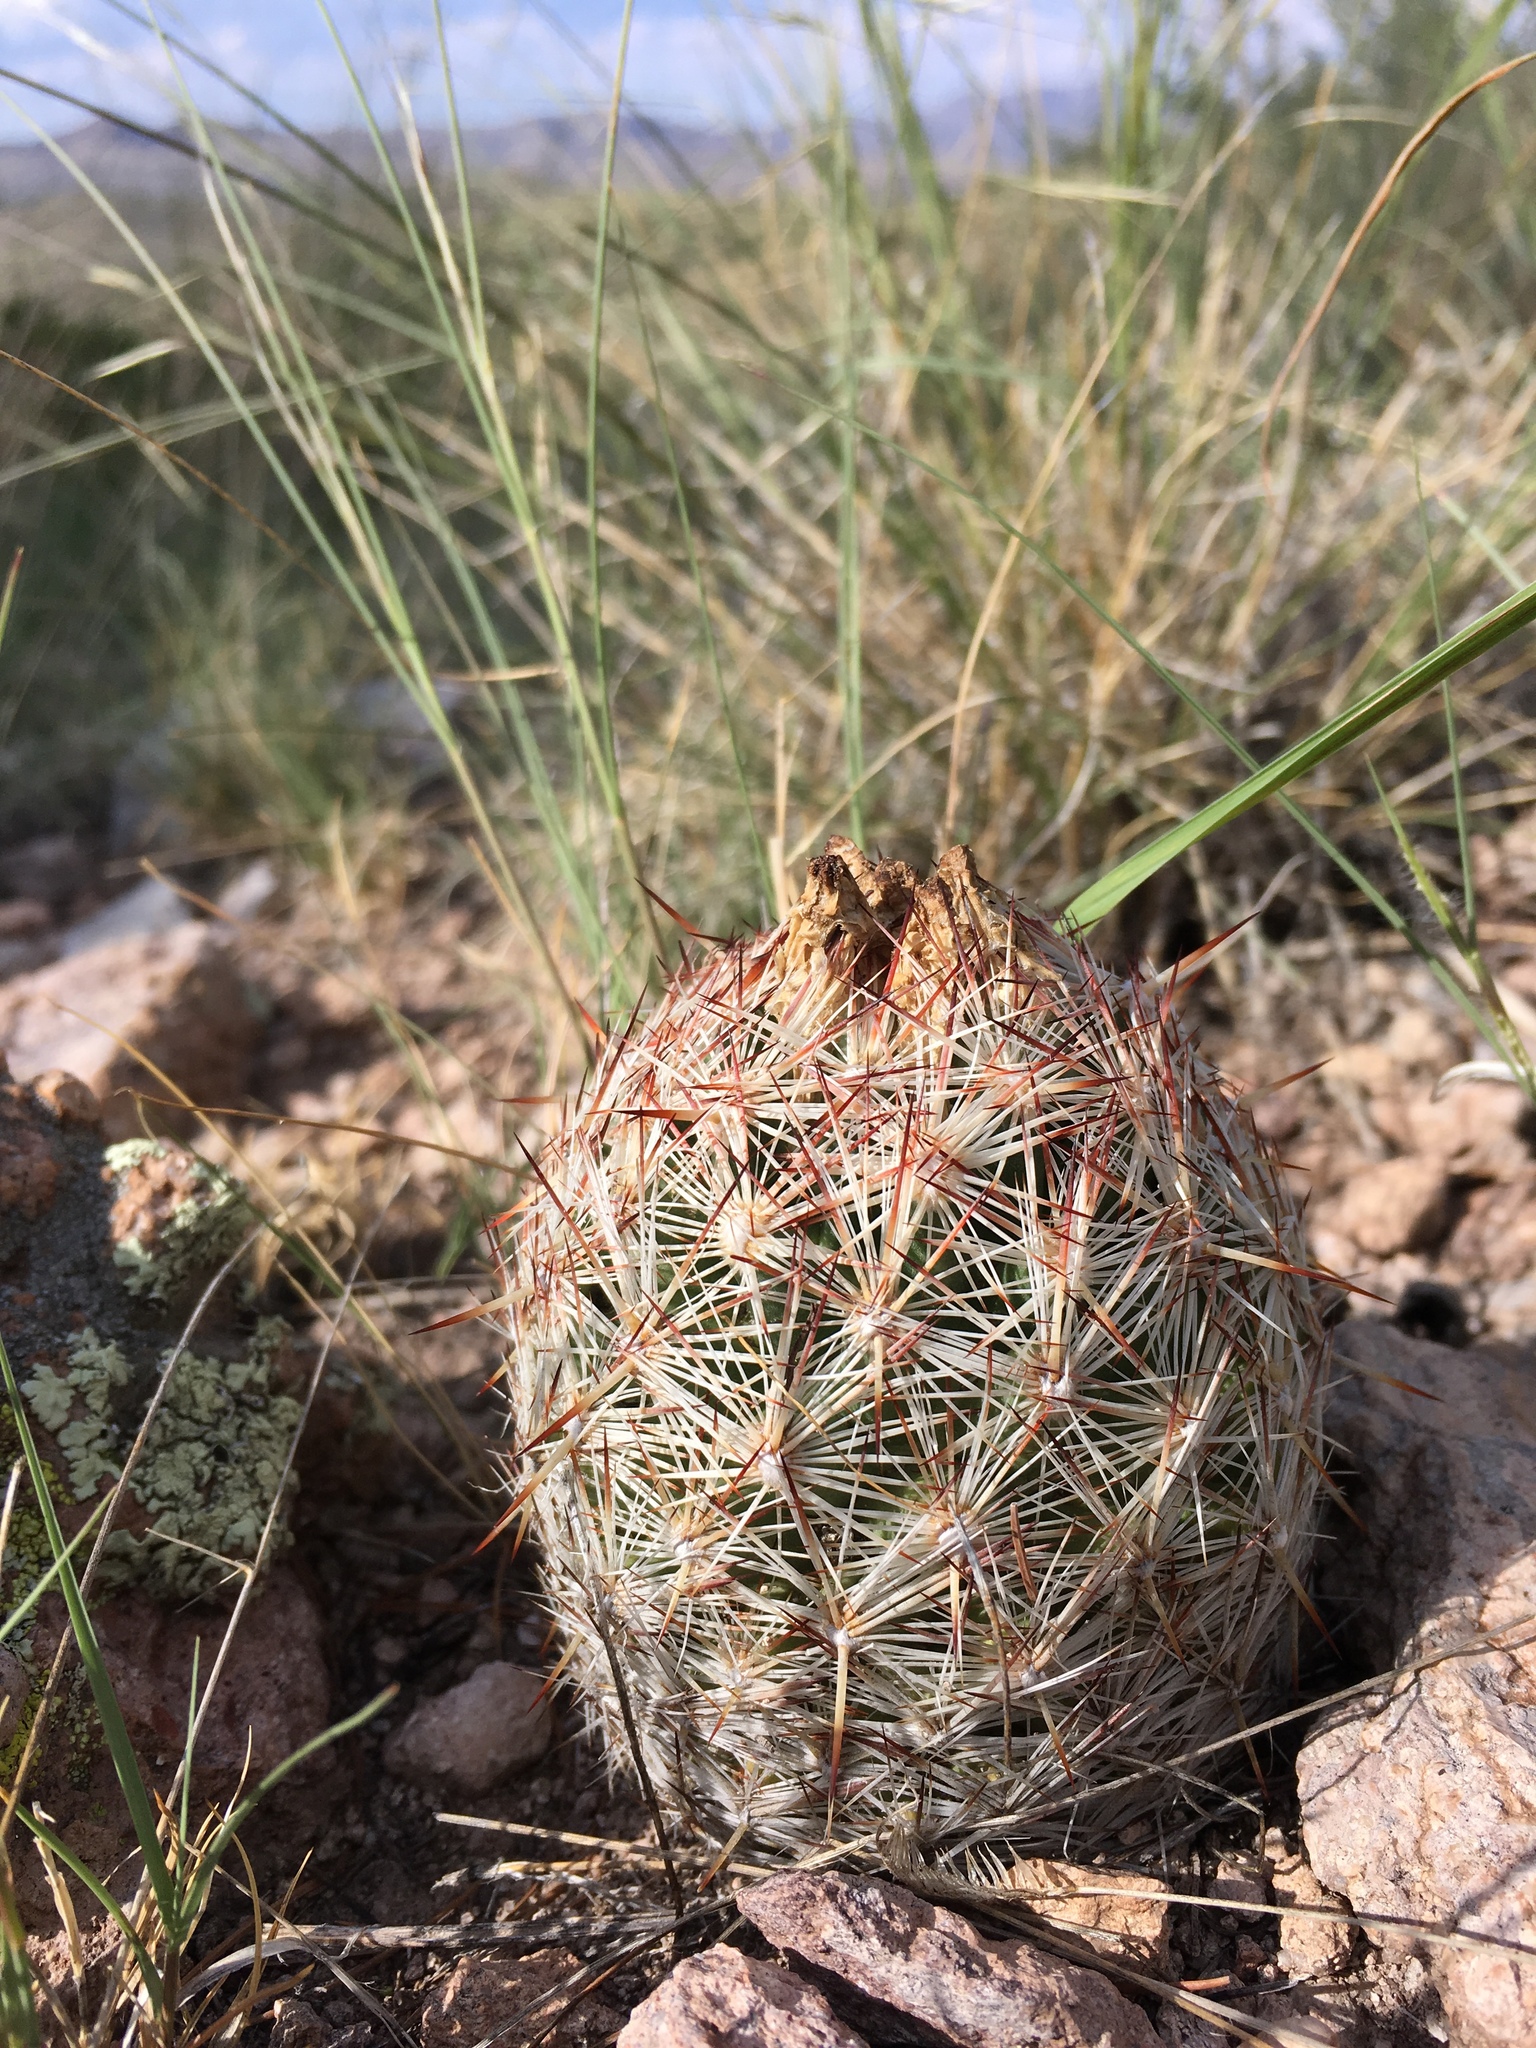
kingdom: Plantae
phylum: Tracheophyta
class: Magnoliopsida
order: Caryophyllales
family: Cactaceae
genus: Pelecyphora
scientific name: Pelecyphora vivipara
